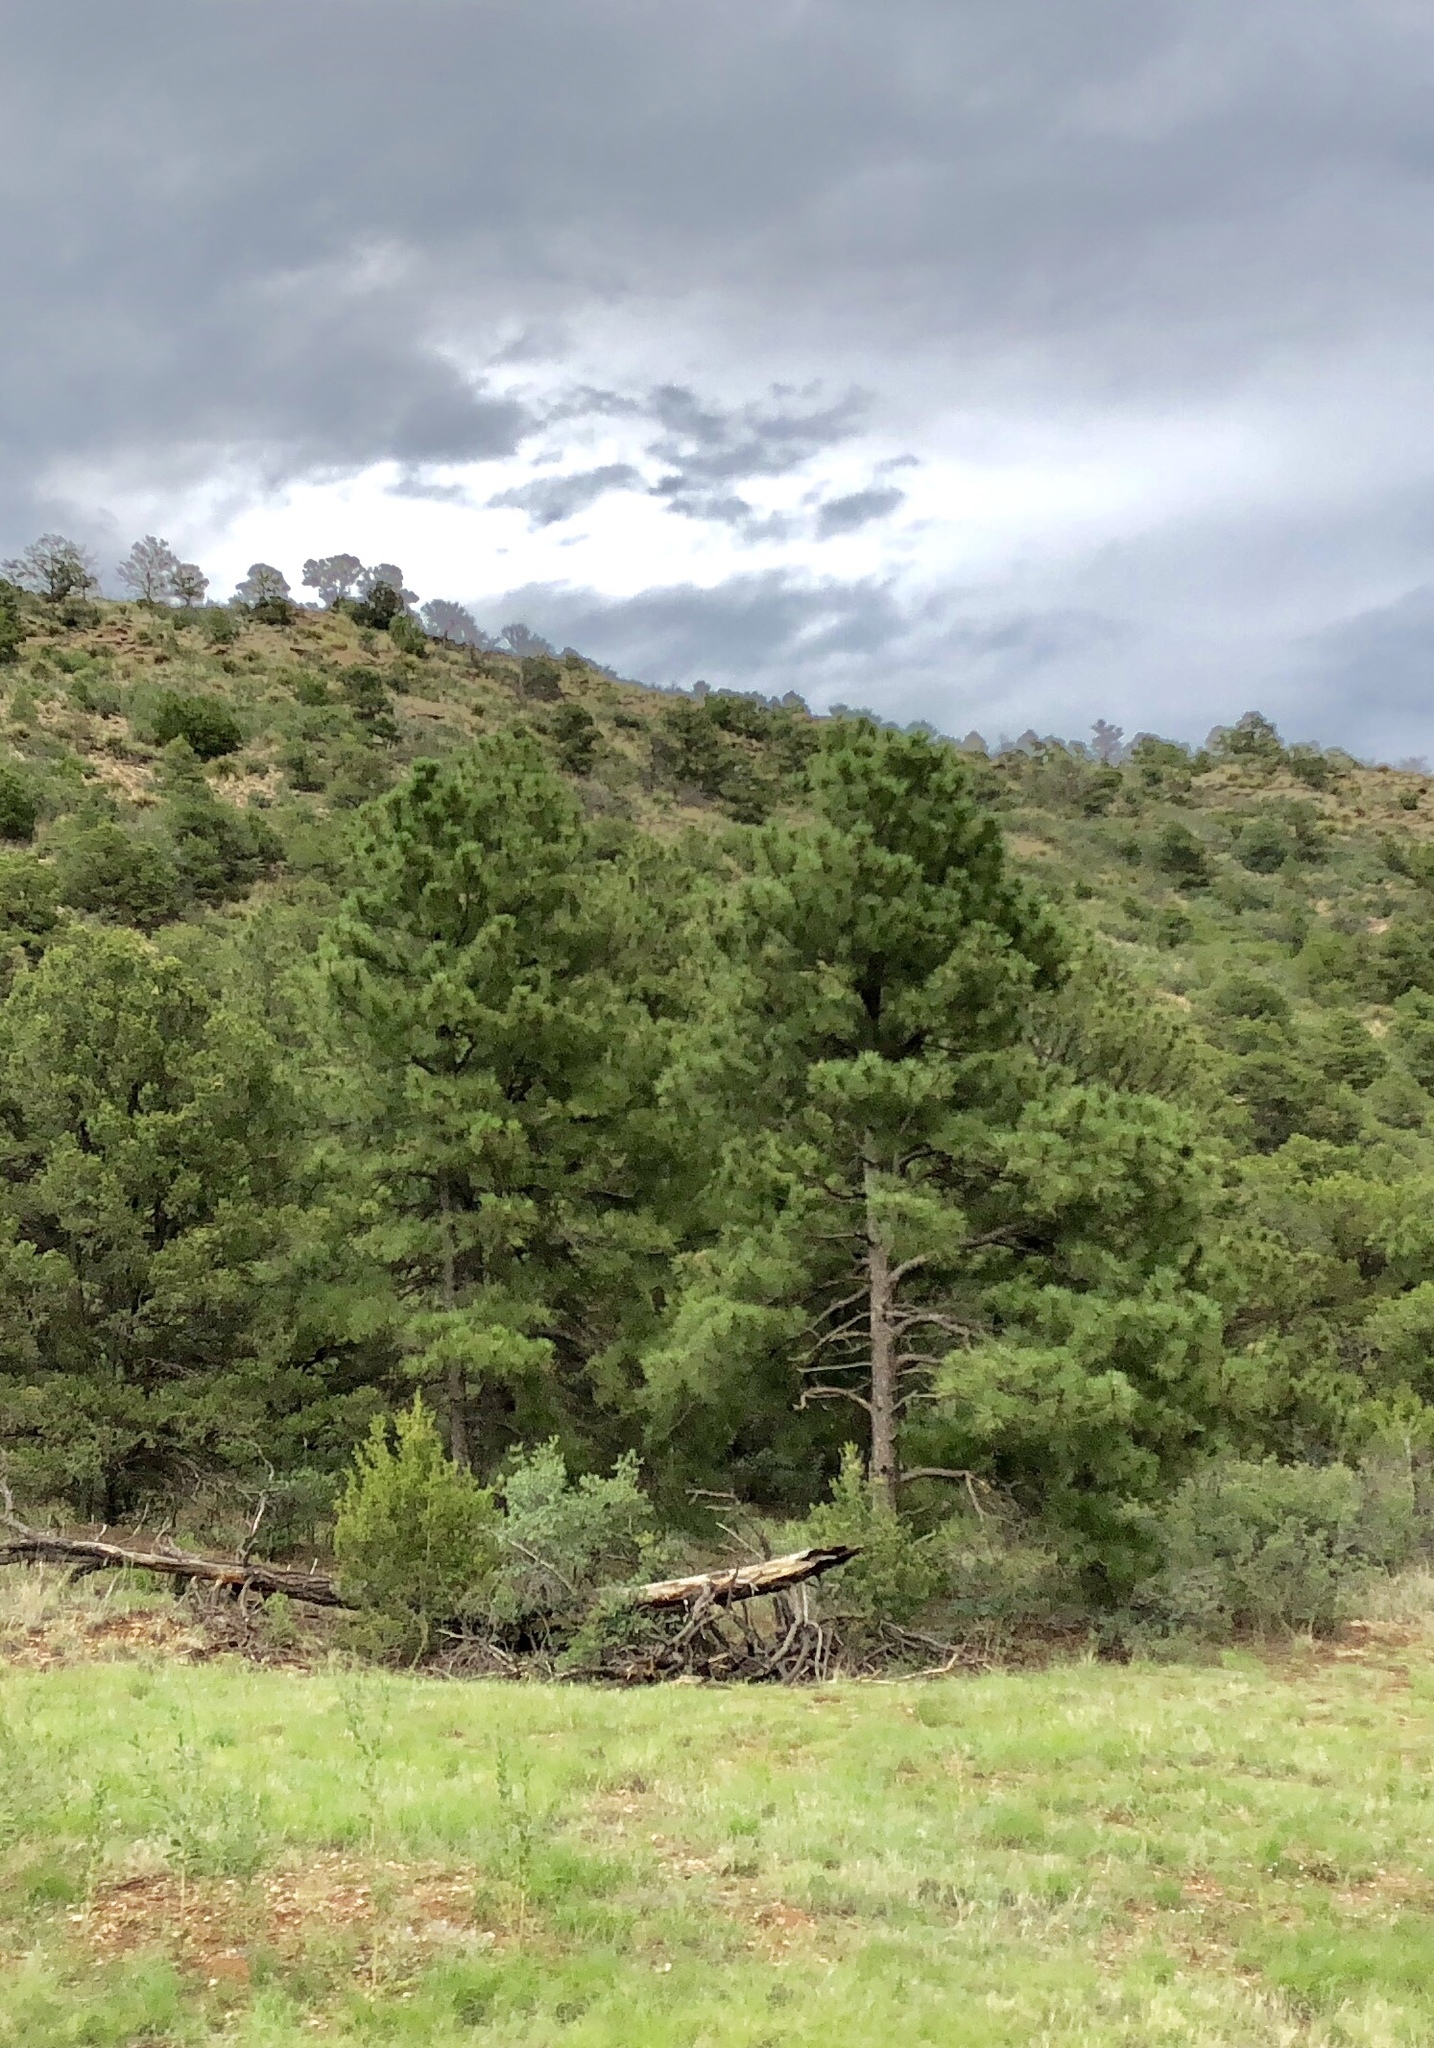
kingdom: Plantae
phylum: Tracheophyta
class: Pinopsida
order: Pinales
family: Pinaceae
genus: Pinus
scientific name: Pinus ponderosa
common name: Western yellow-pine
